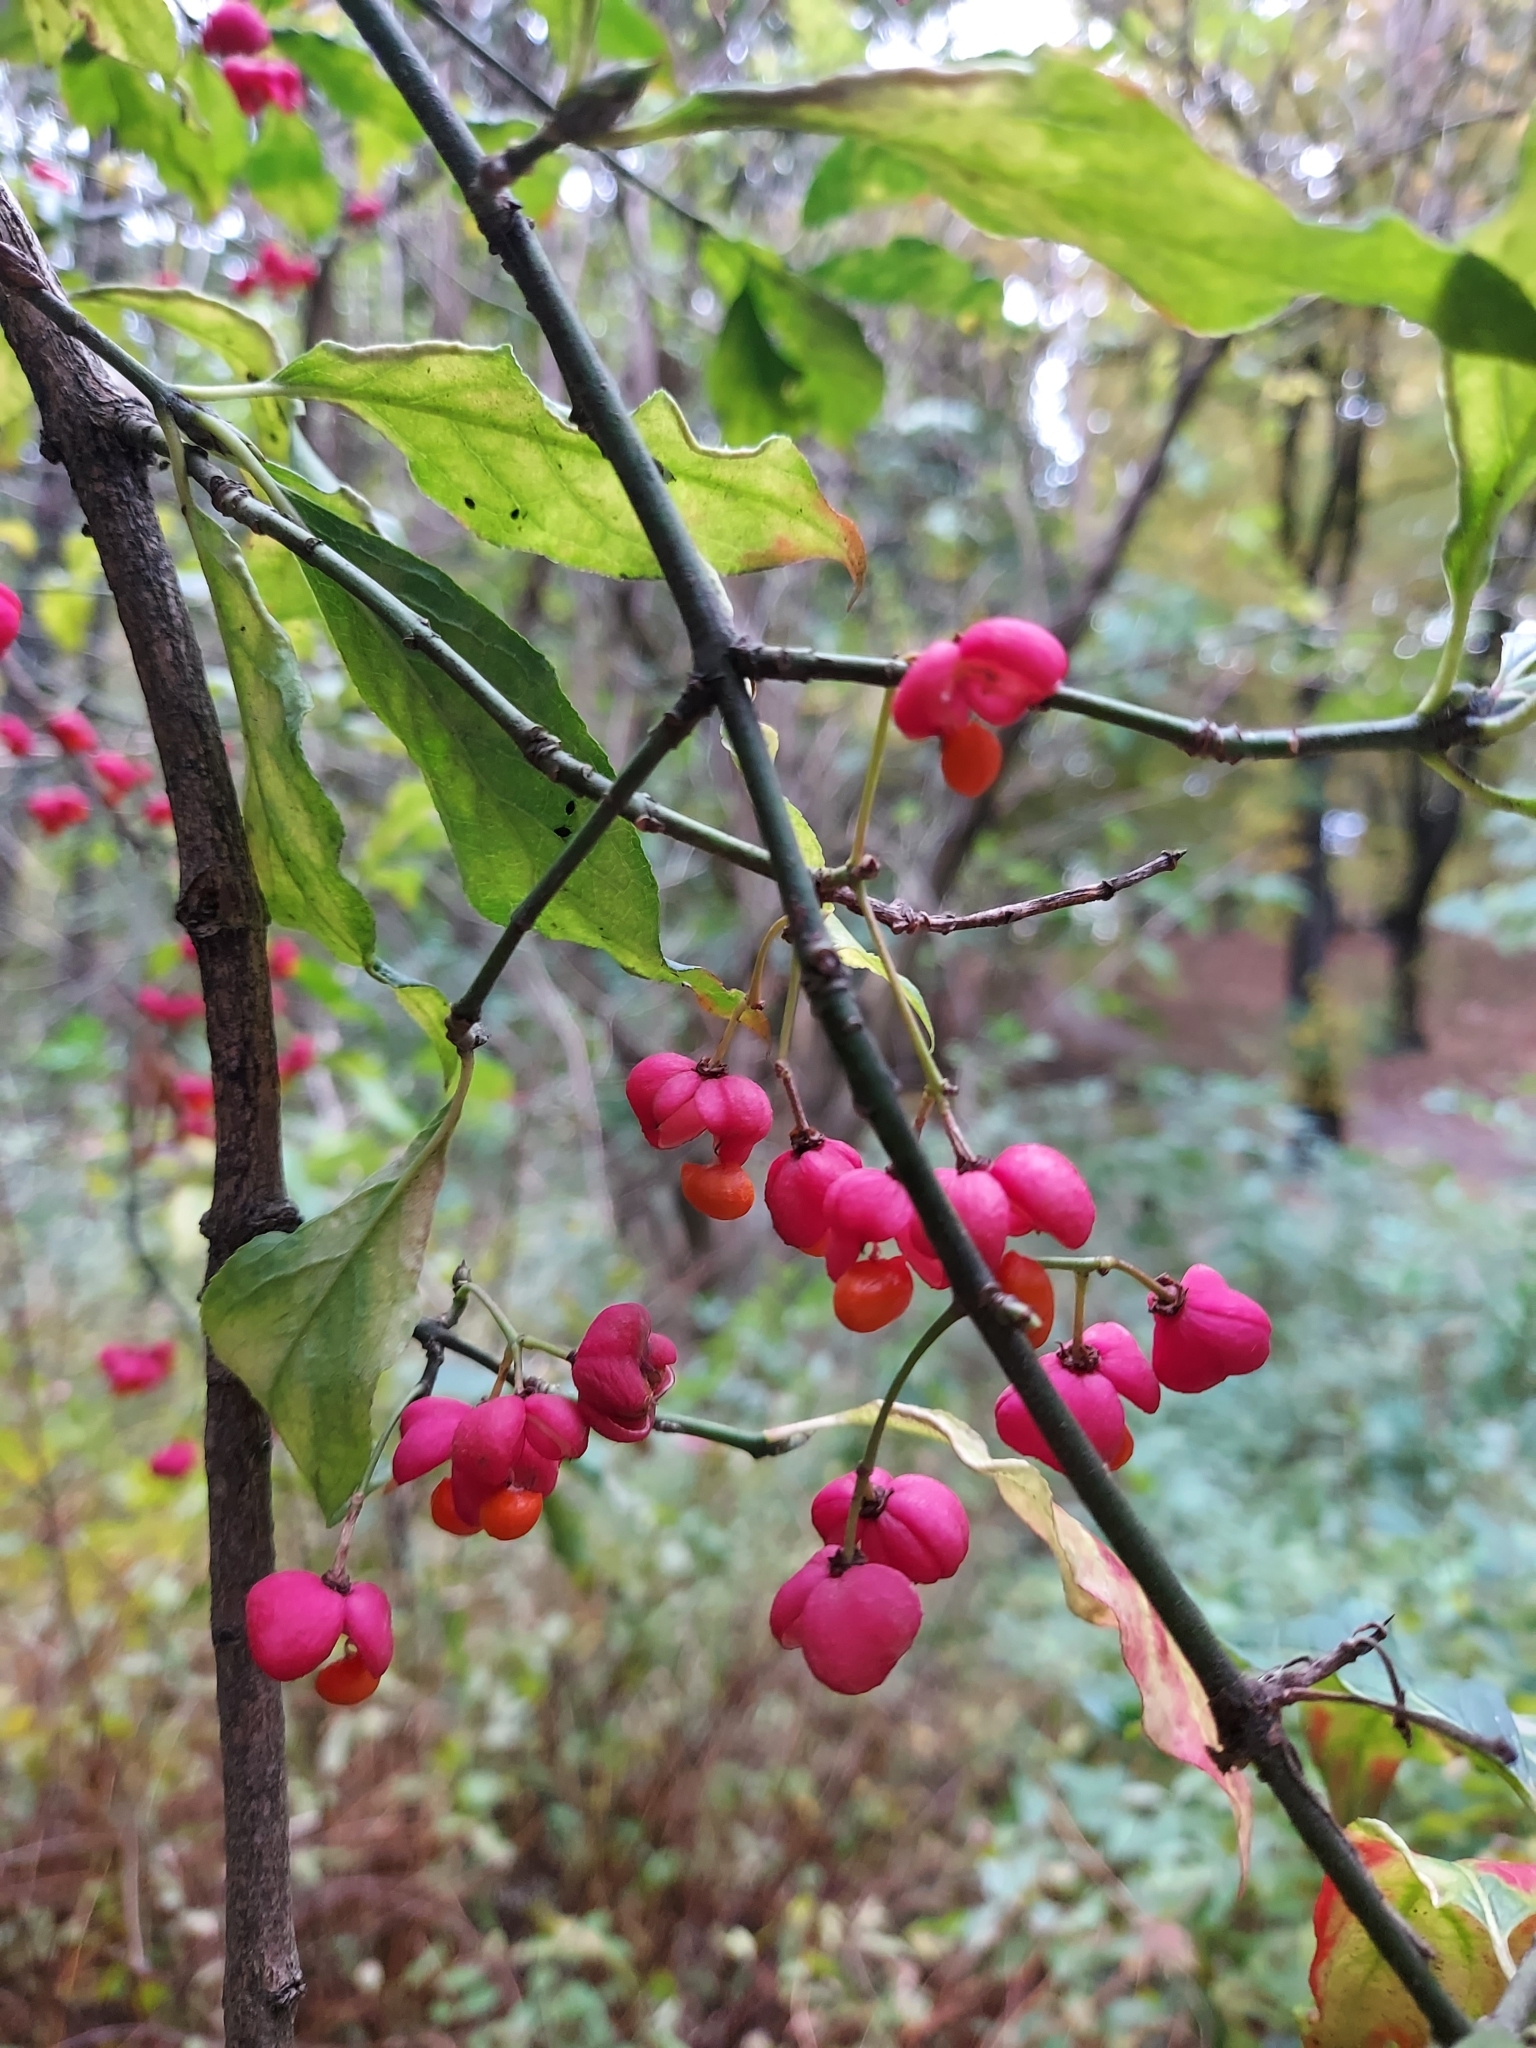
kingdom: Plantae
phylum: Tracheophyta
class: Magnoliopsida
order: Celastrales
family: Celastraceae
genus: Euonymus
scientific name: Euonymus europaeus
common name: Spindle
